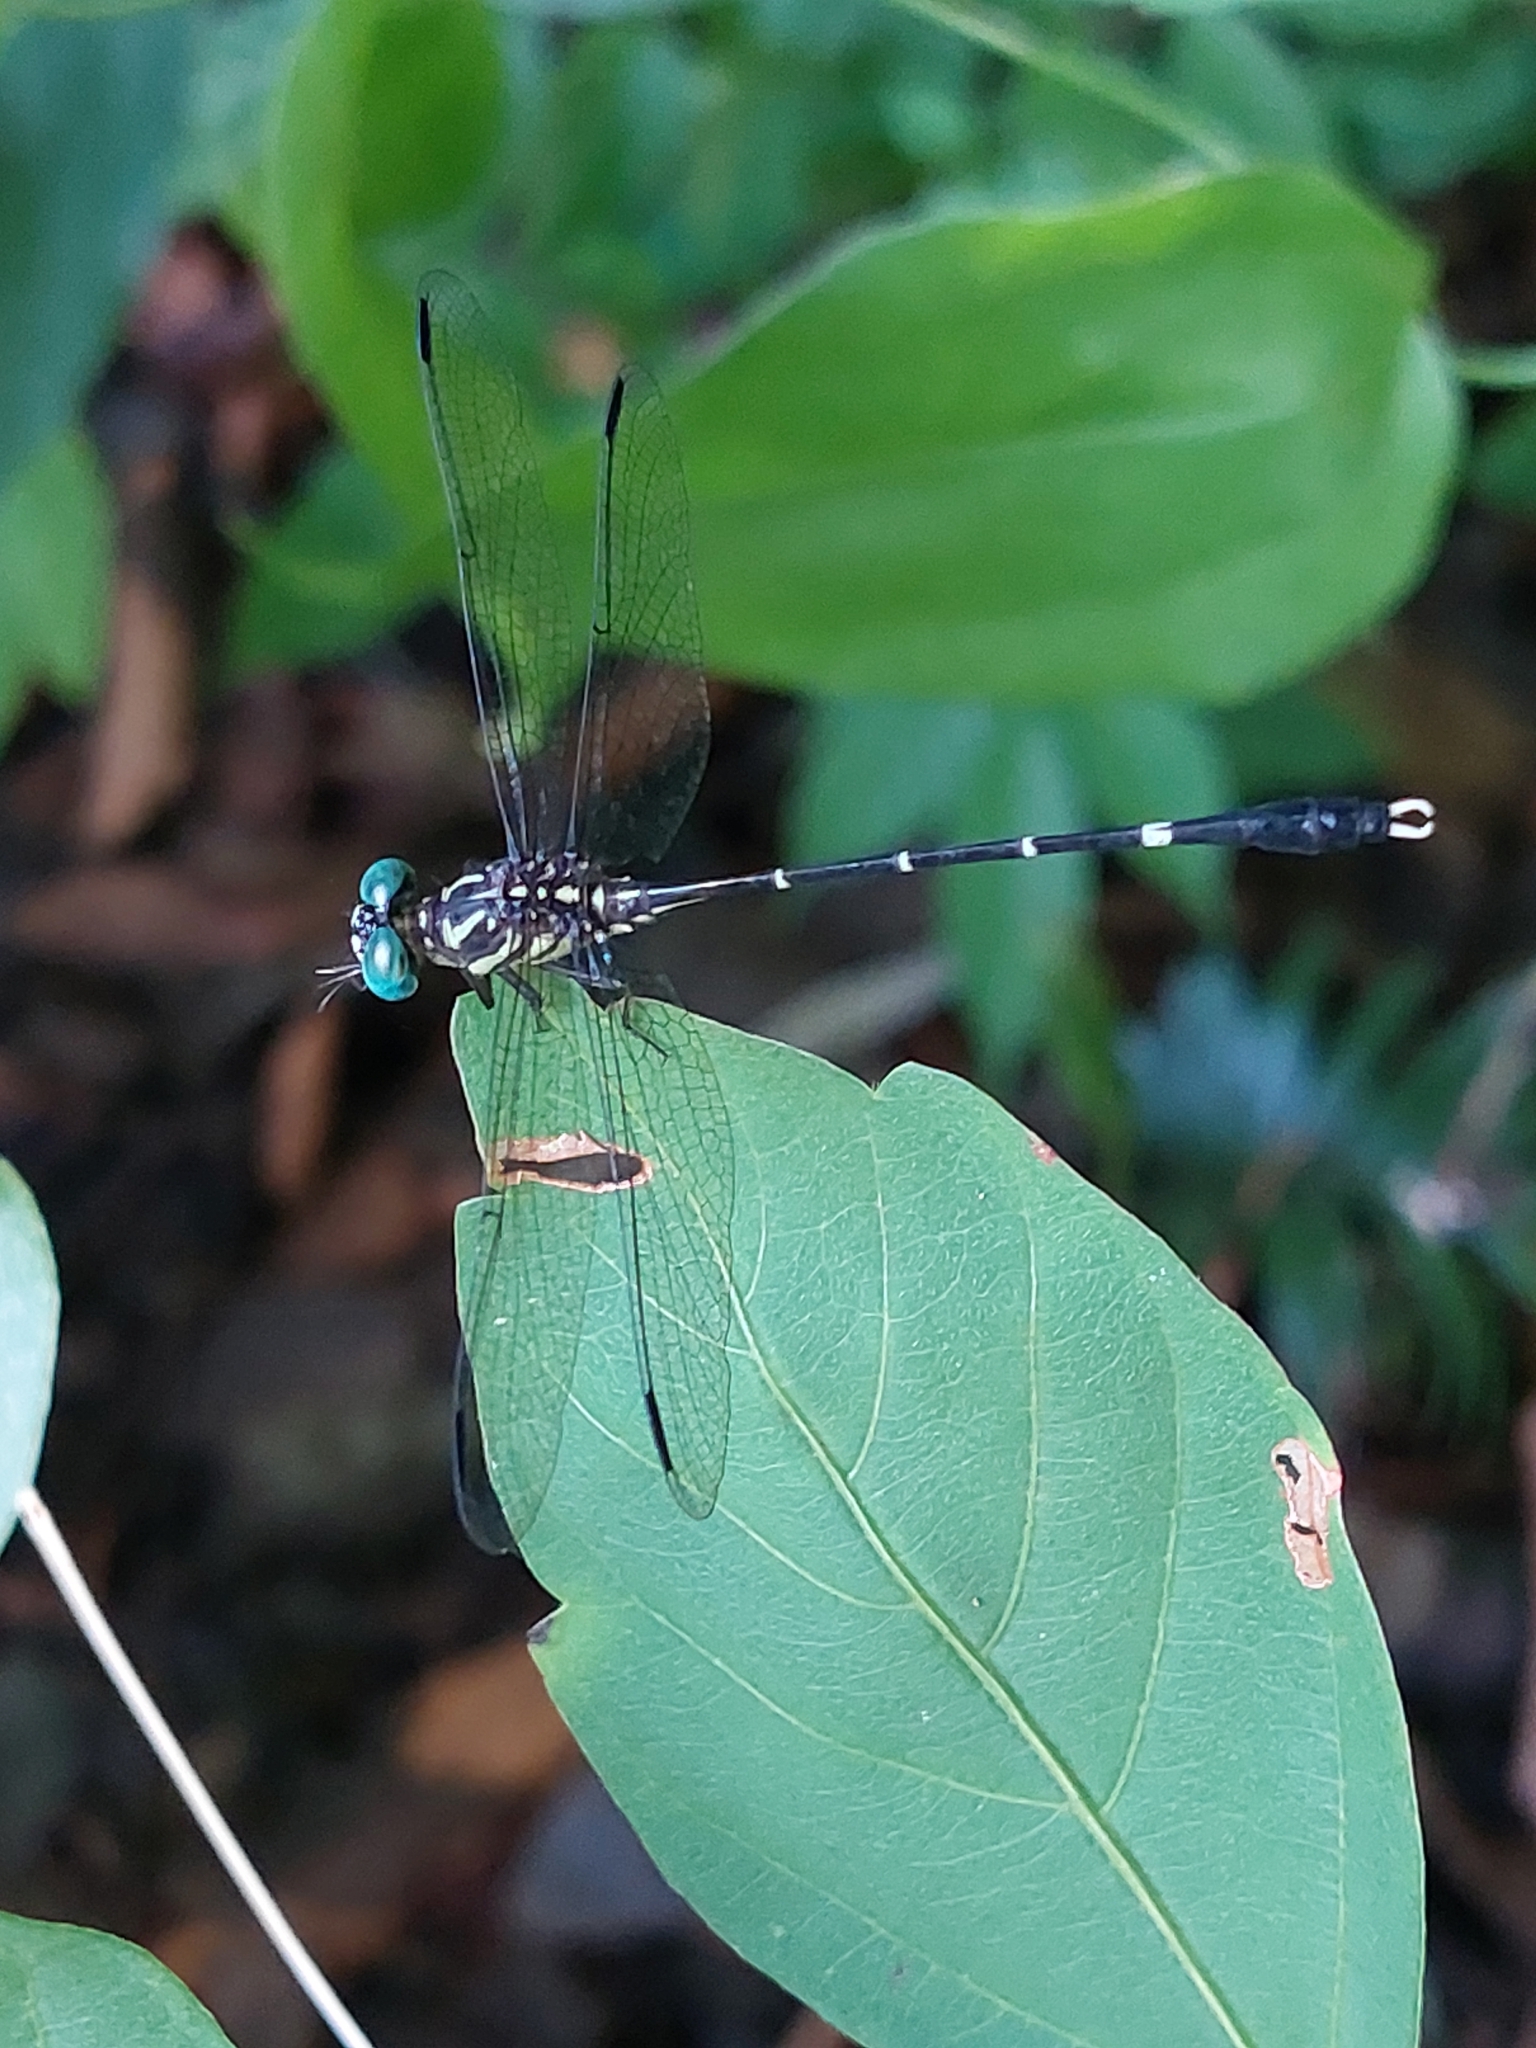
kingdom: Animalia
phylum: Arthropoda
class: Insecta
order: Odonata
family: Gomphidae
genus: Desmogomphus
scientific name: Desmogomphus paucinervis
